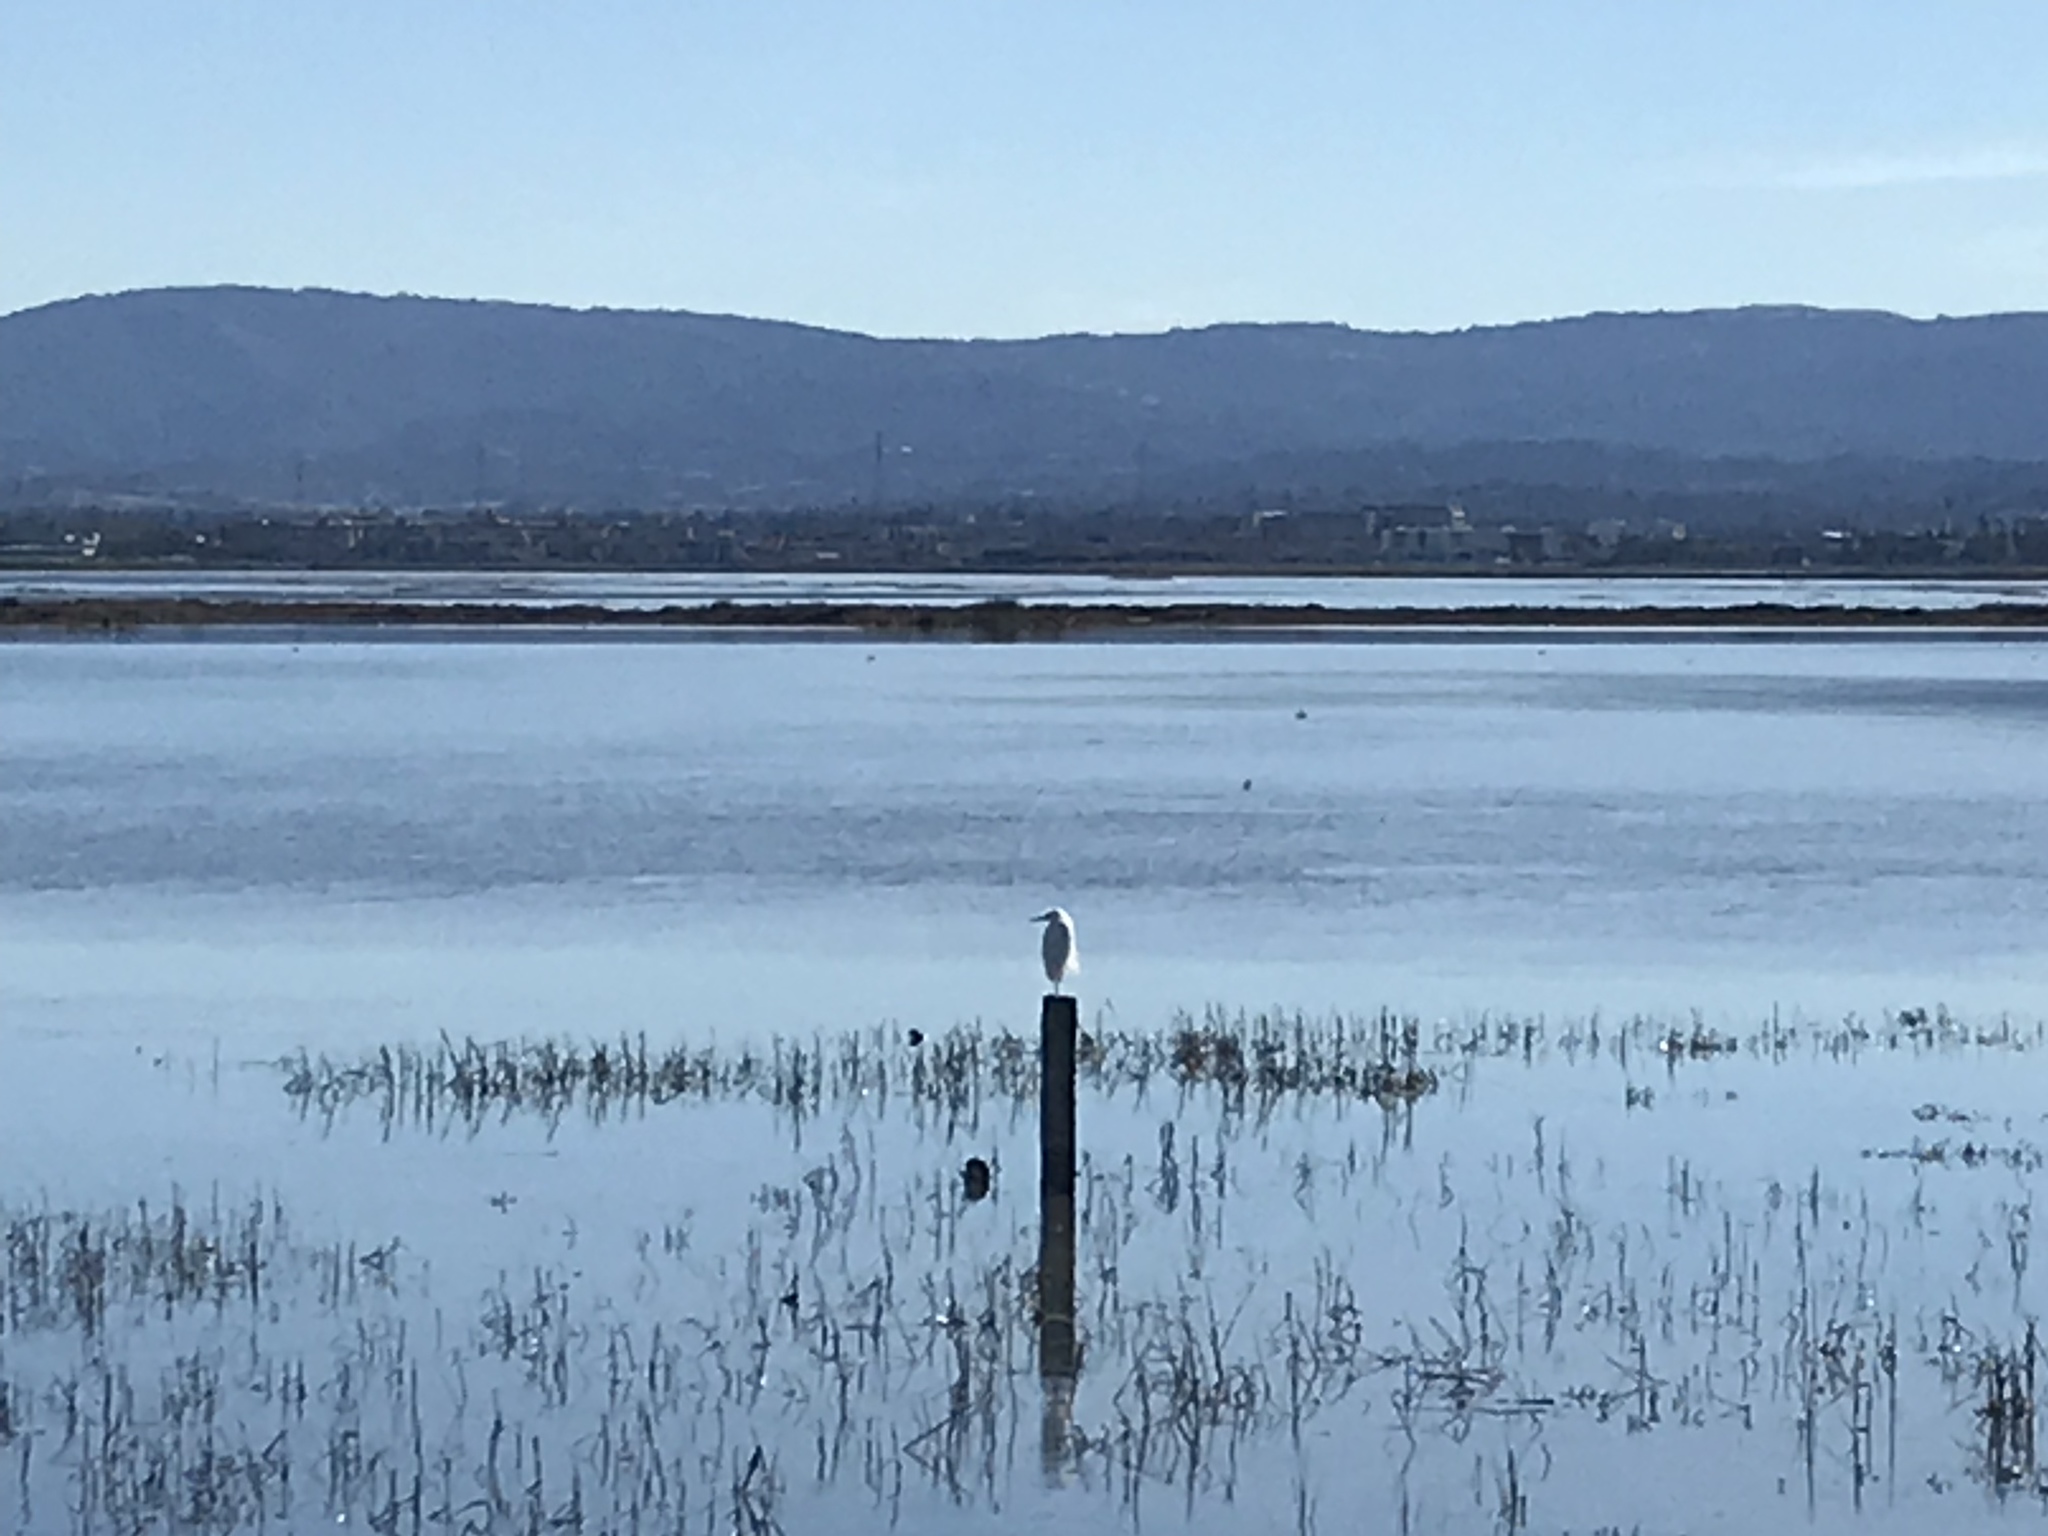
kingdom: Animalia
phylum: Chordata
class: Aves
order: Pelecaniformes
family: Ardeidae
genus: Egretta
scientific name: Egretta thula
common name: Snowy egret
